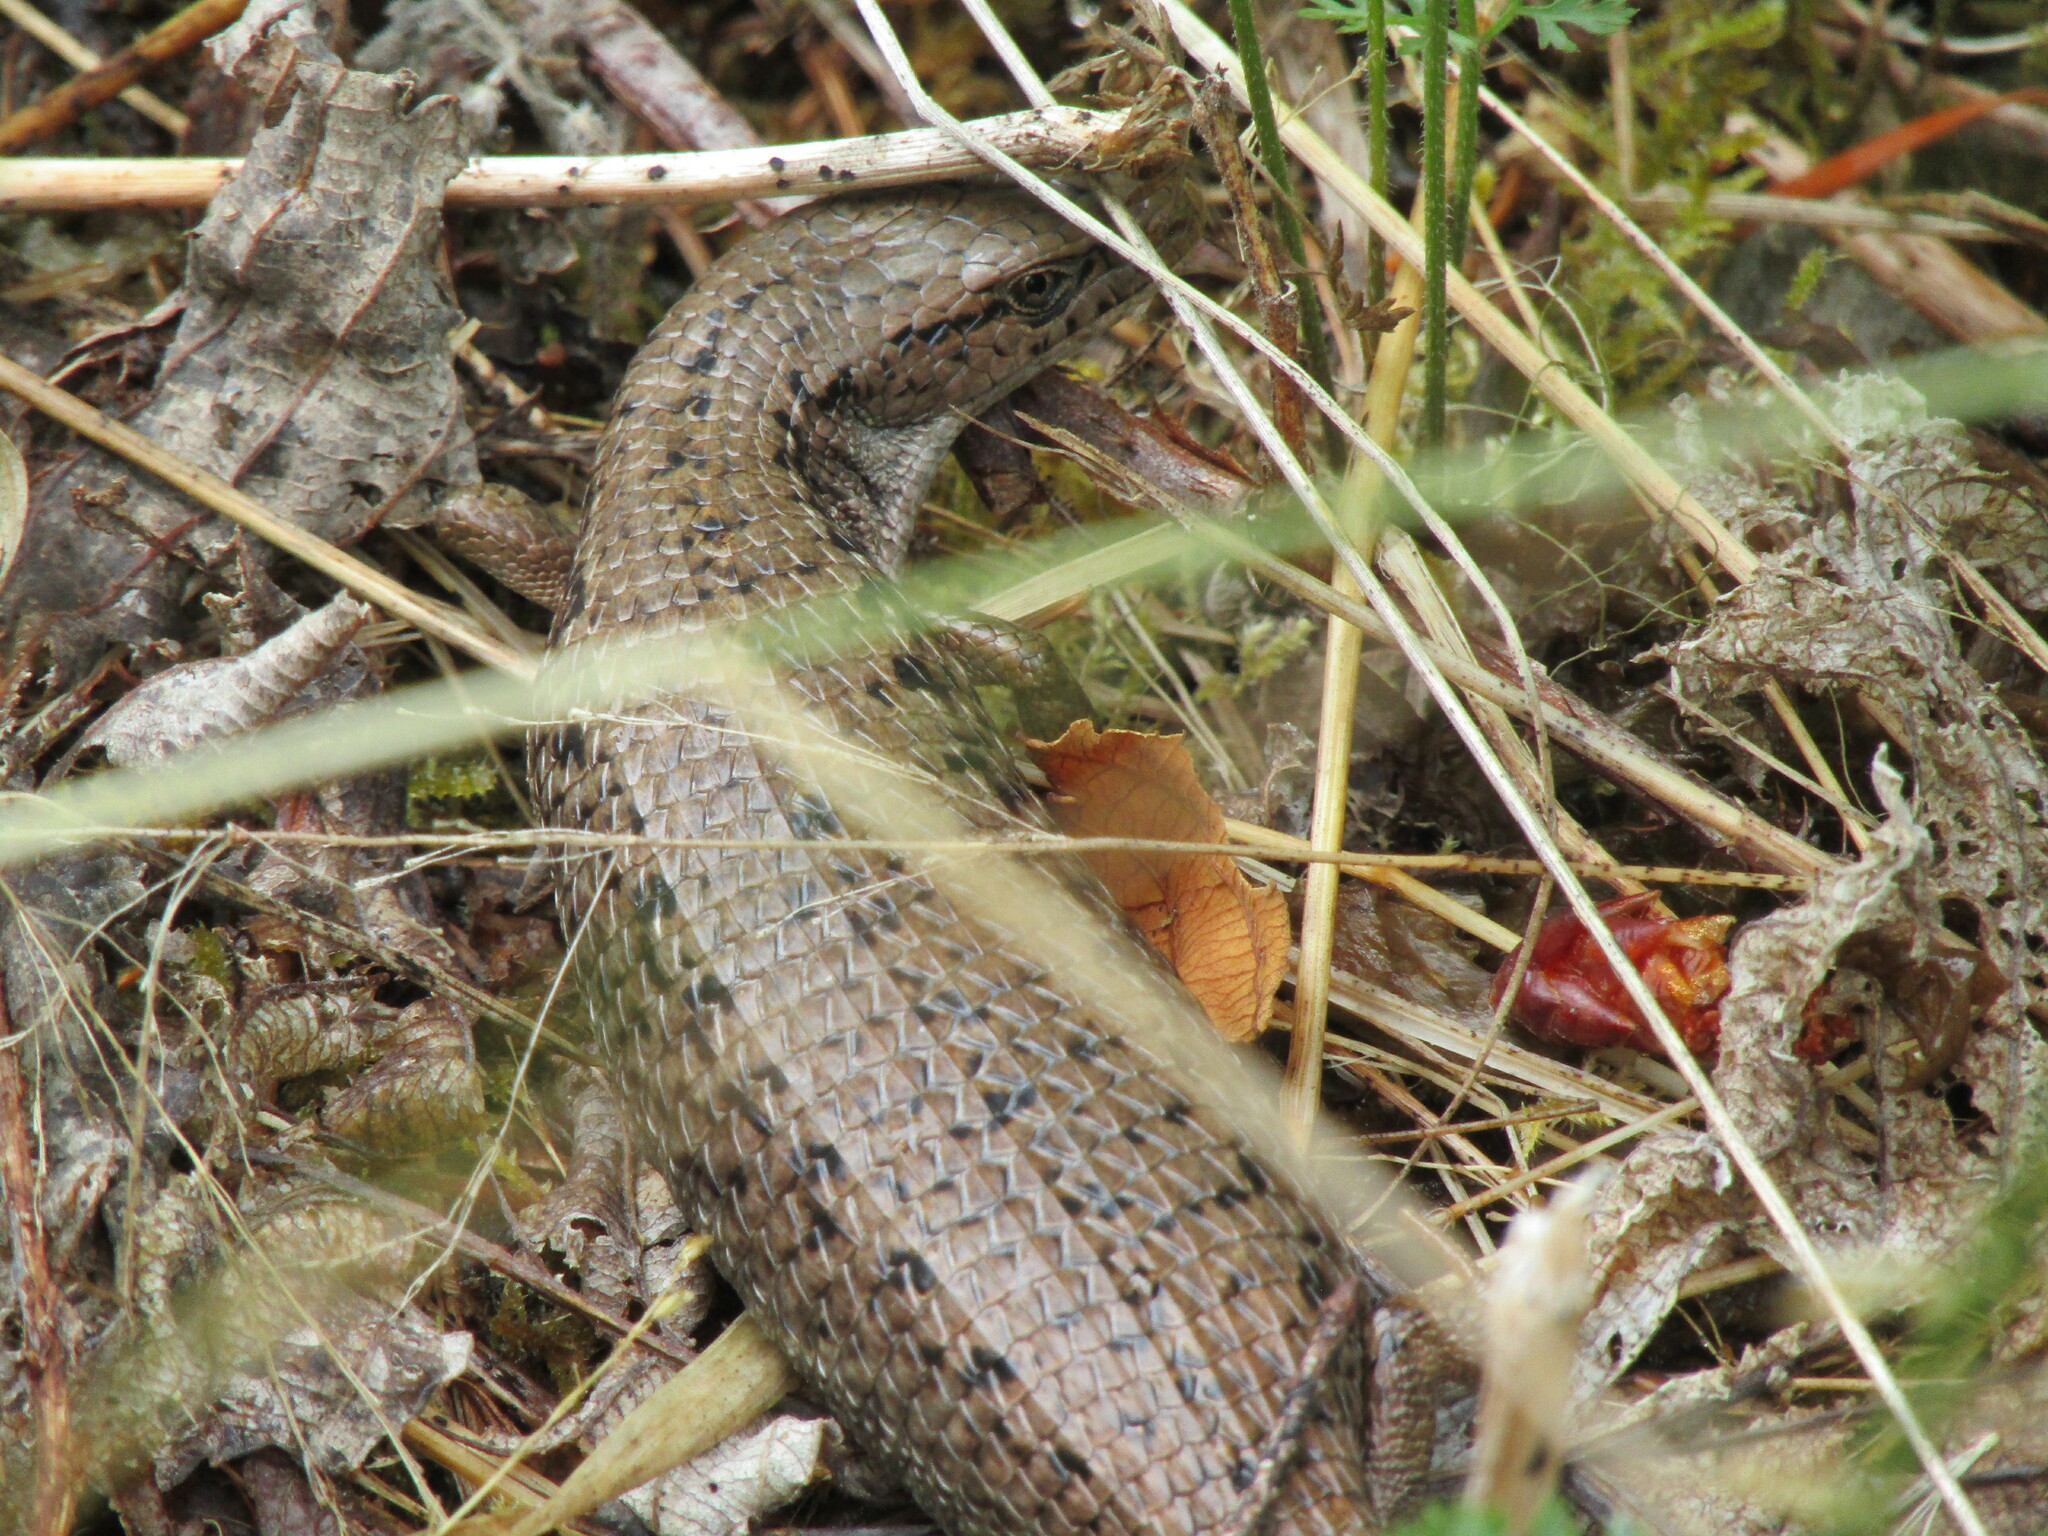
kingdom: Animalia
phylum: Chordata
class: Squamata
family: Anguidae
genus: Elgaria
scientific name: Elgaria coerulea
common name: Northern alligator lizard
